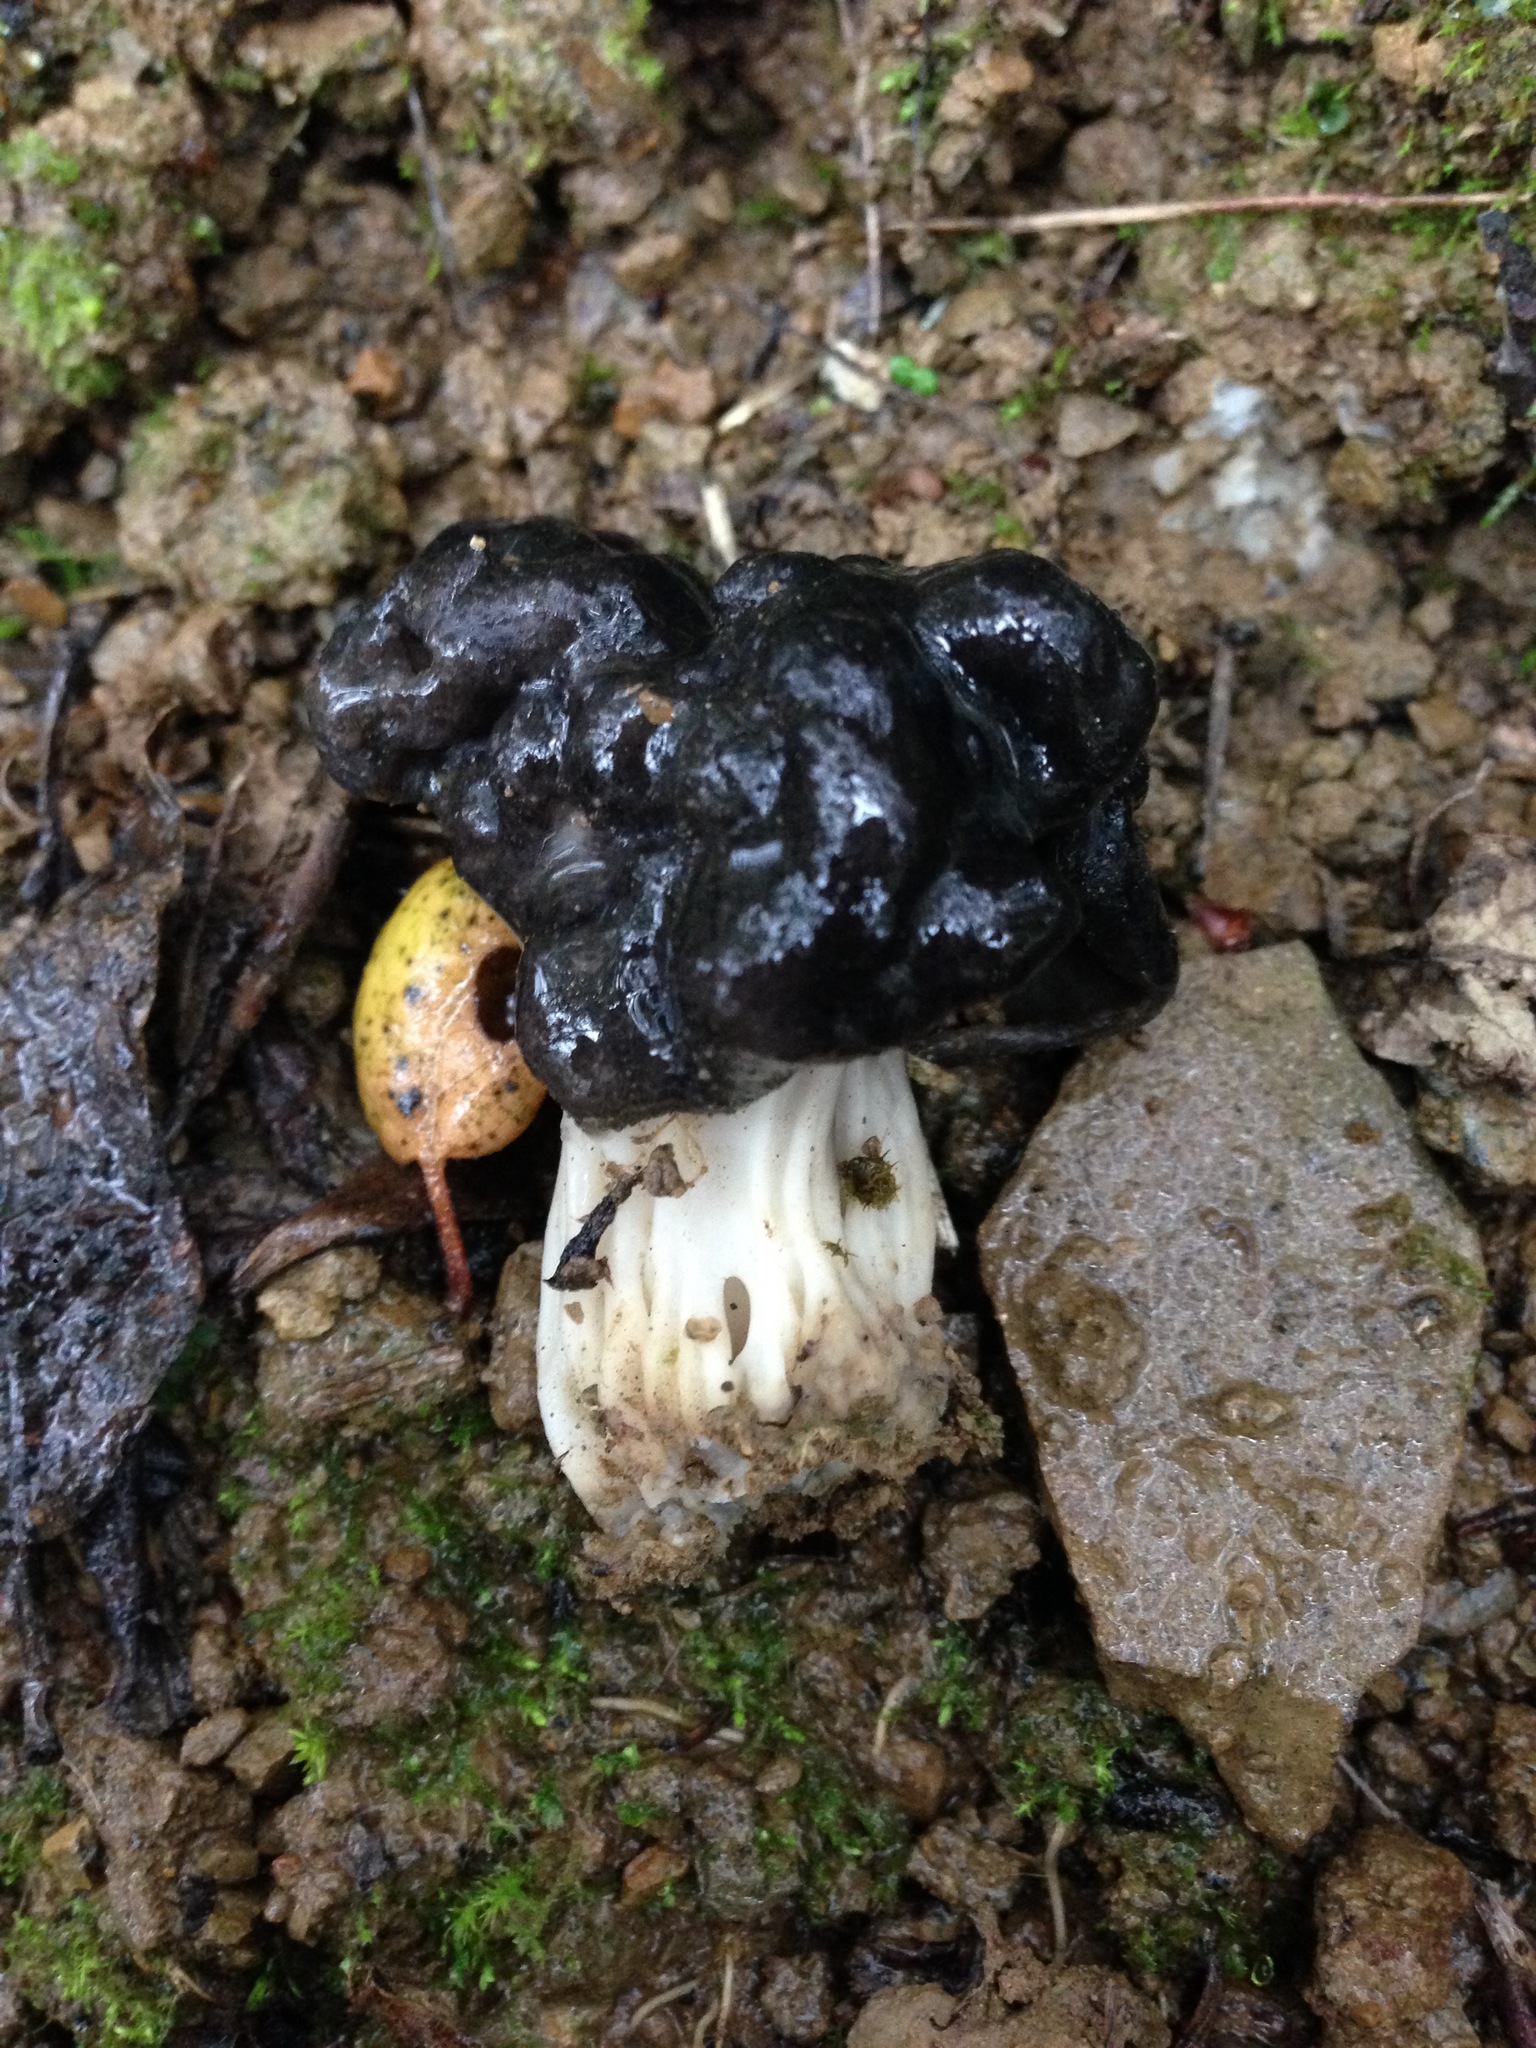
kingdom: Fungi
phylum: Ascomycota
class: Pezizomycetes
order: Pezizales
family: Helvellaceae
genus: Helvella
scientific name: Helvella dryophila
